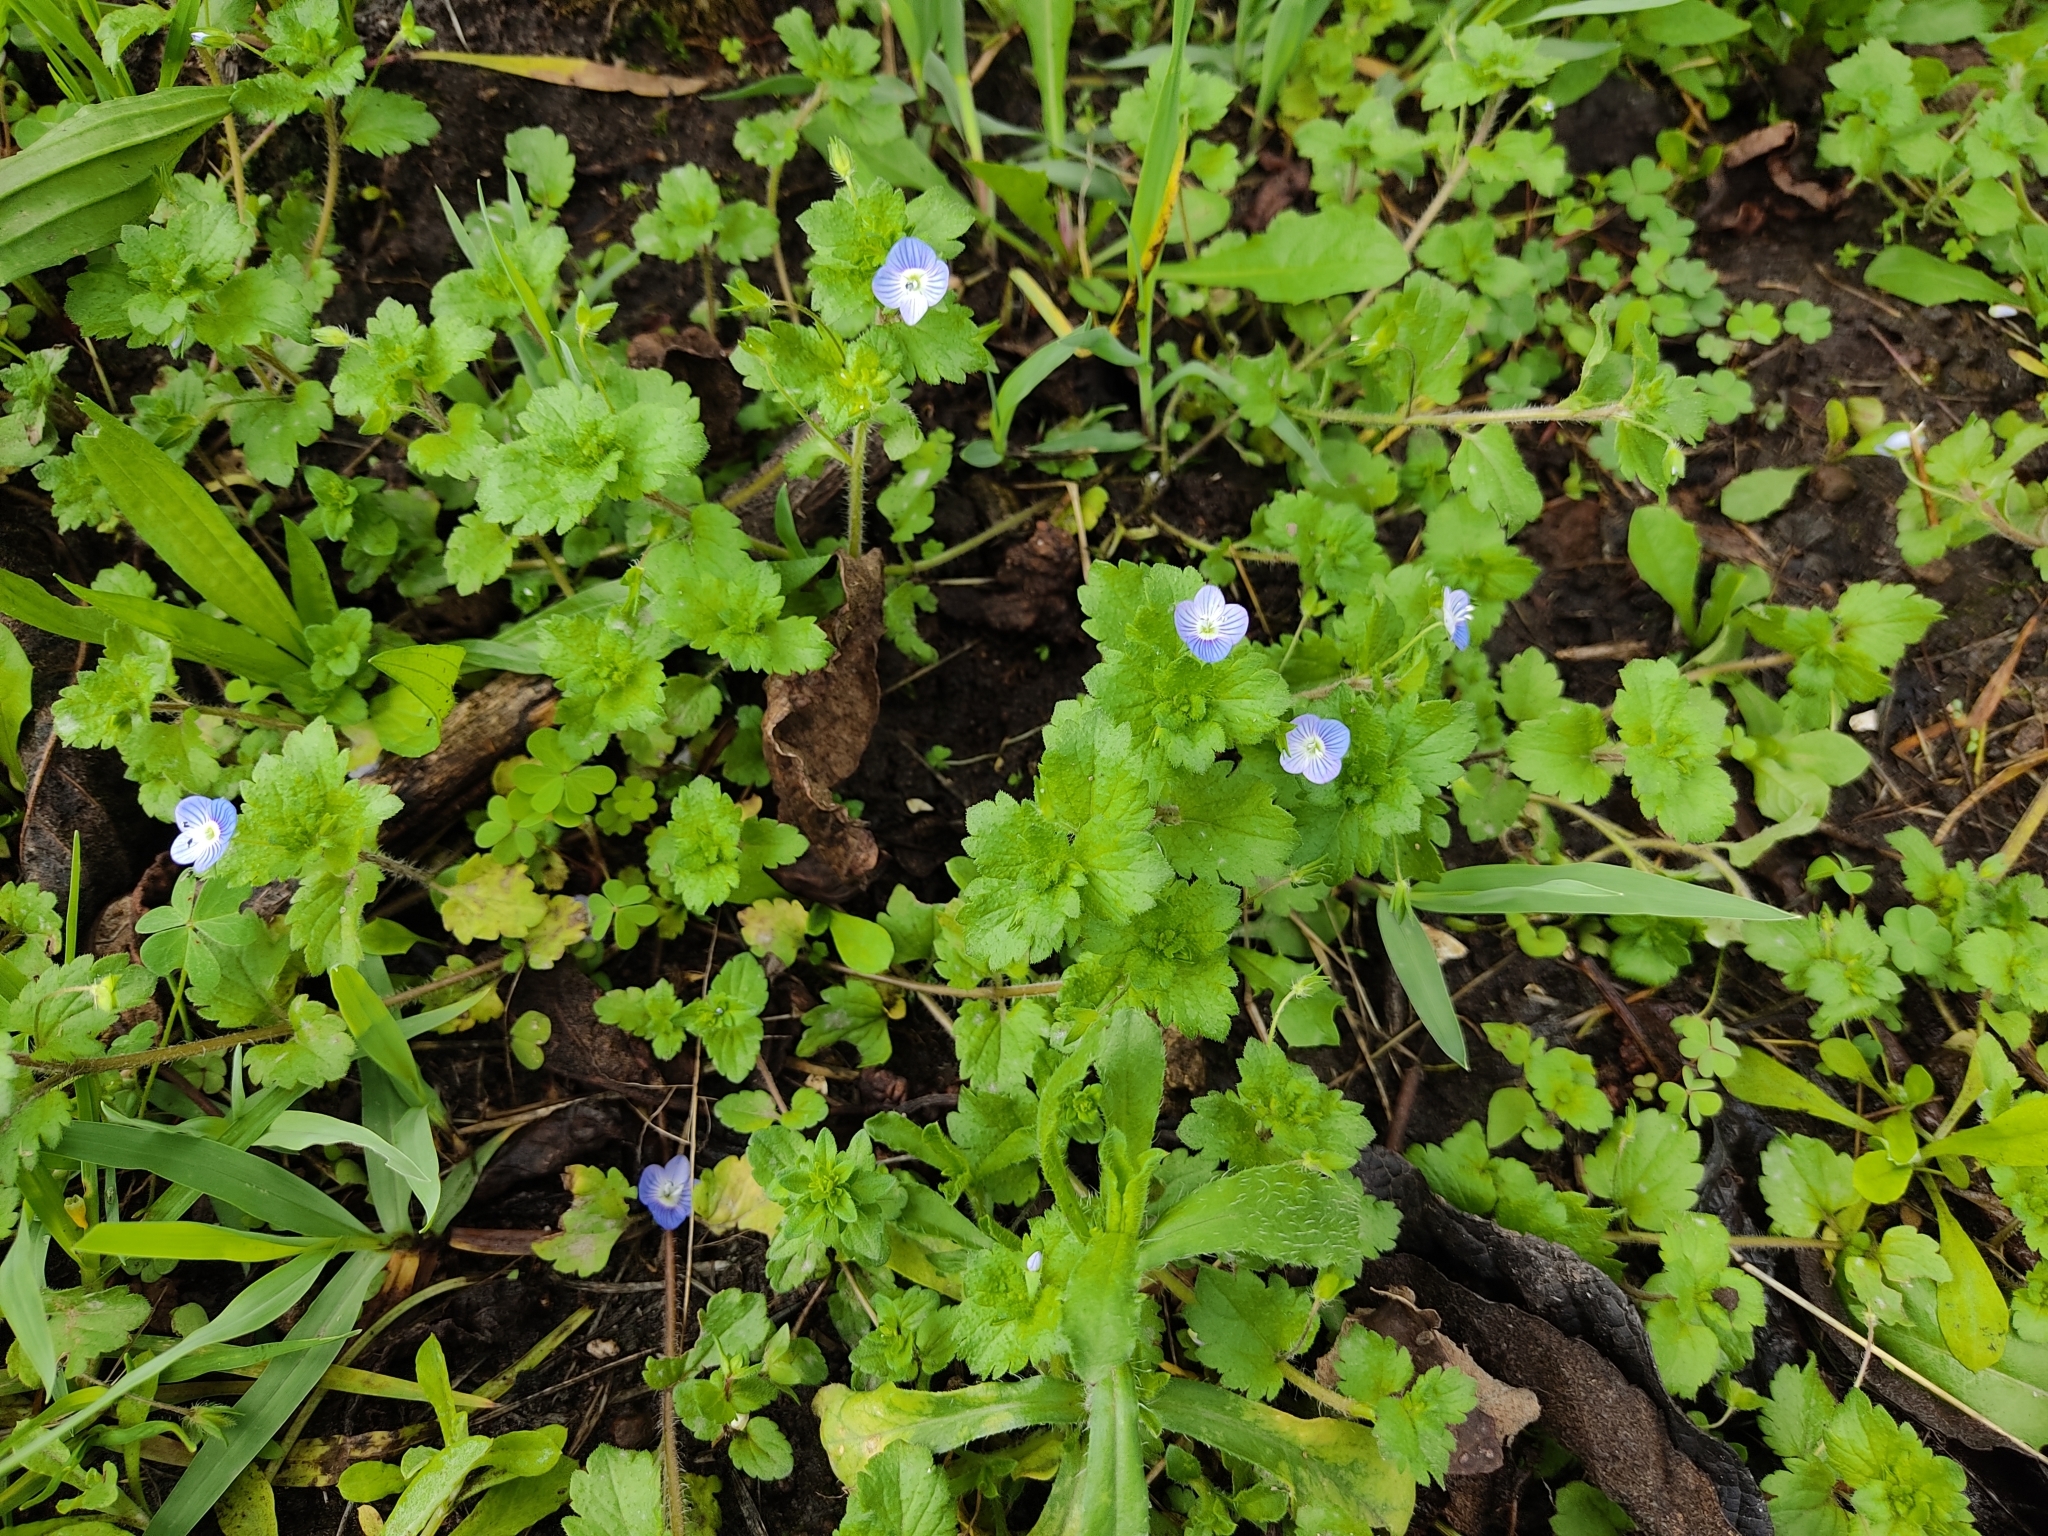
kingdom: Plantae
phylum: Tracheophyta
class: Magnoliopsida
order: Lamiales
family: Plantaginaceae
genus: Veronica
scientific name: Veronica persica
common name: Common field-speedwell
